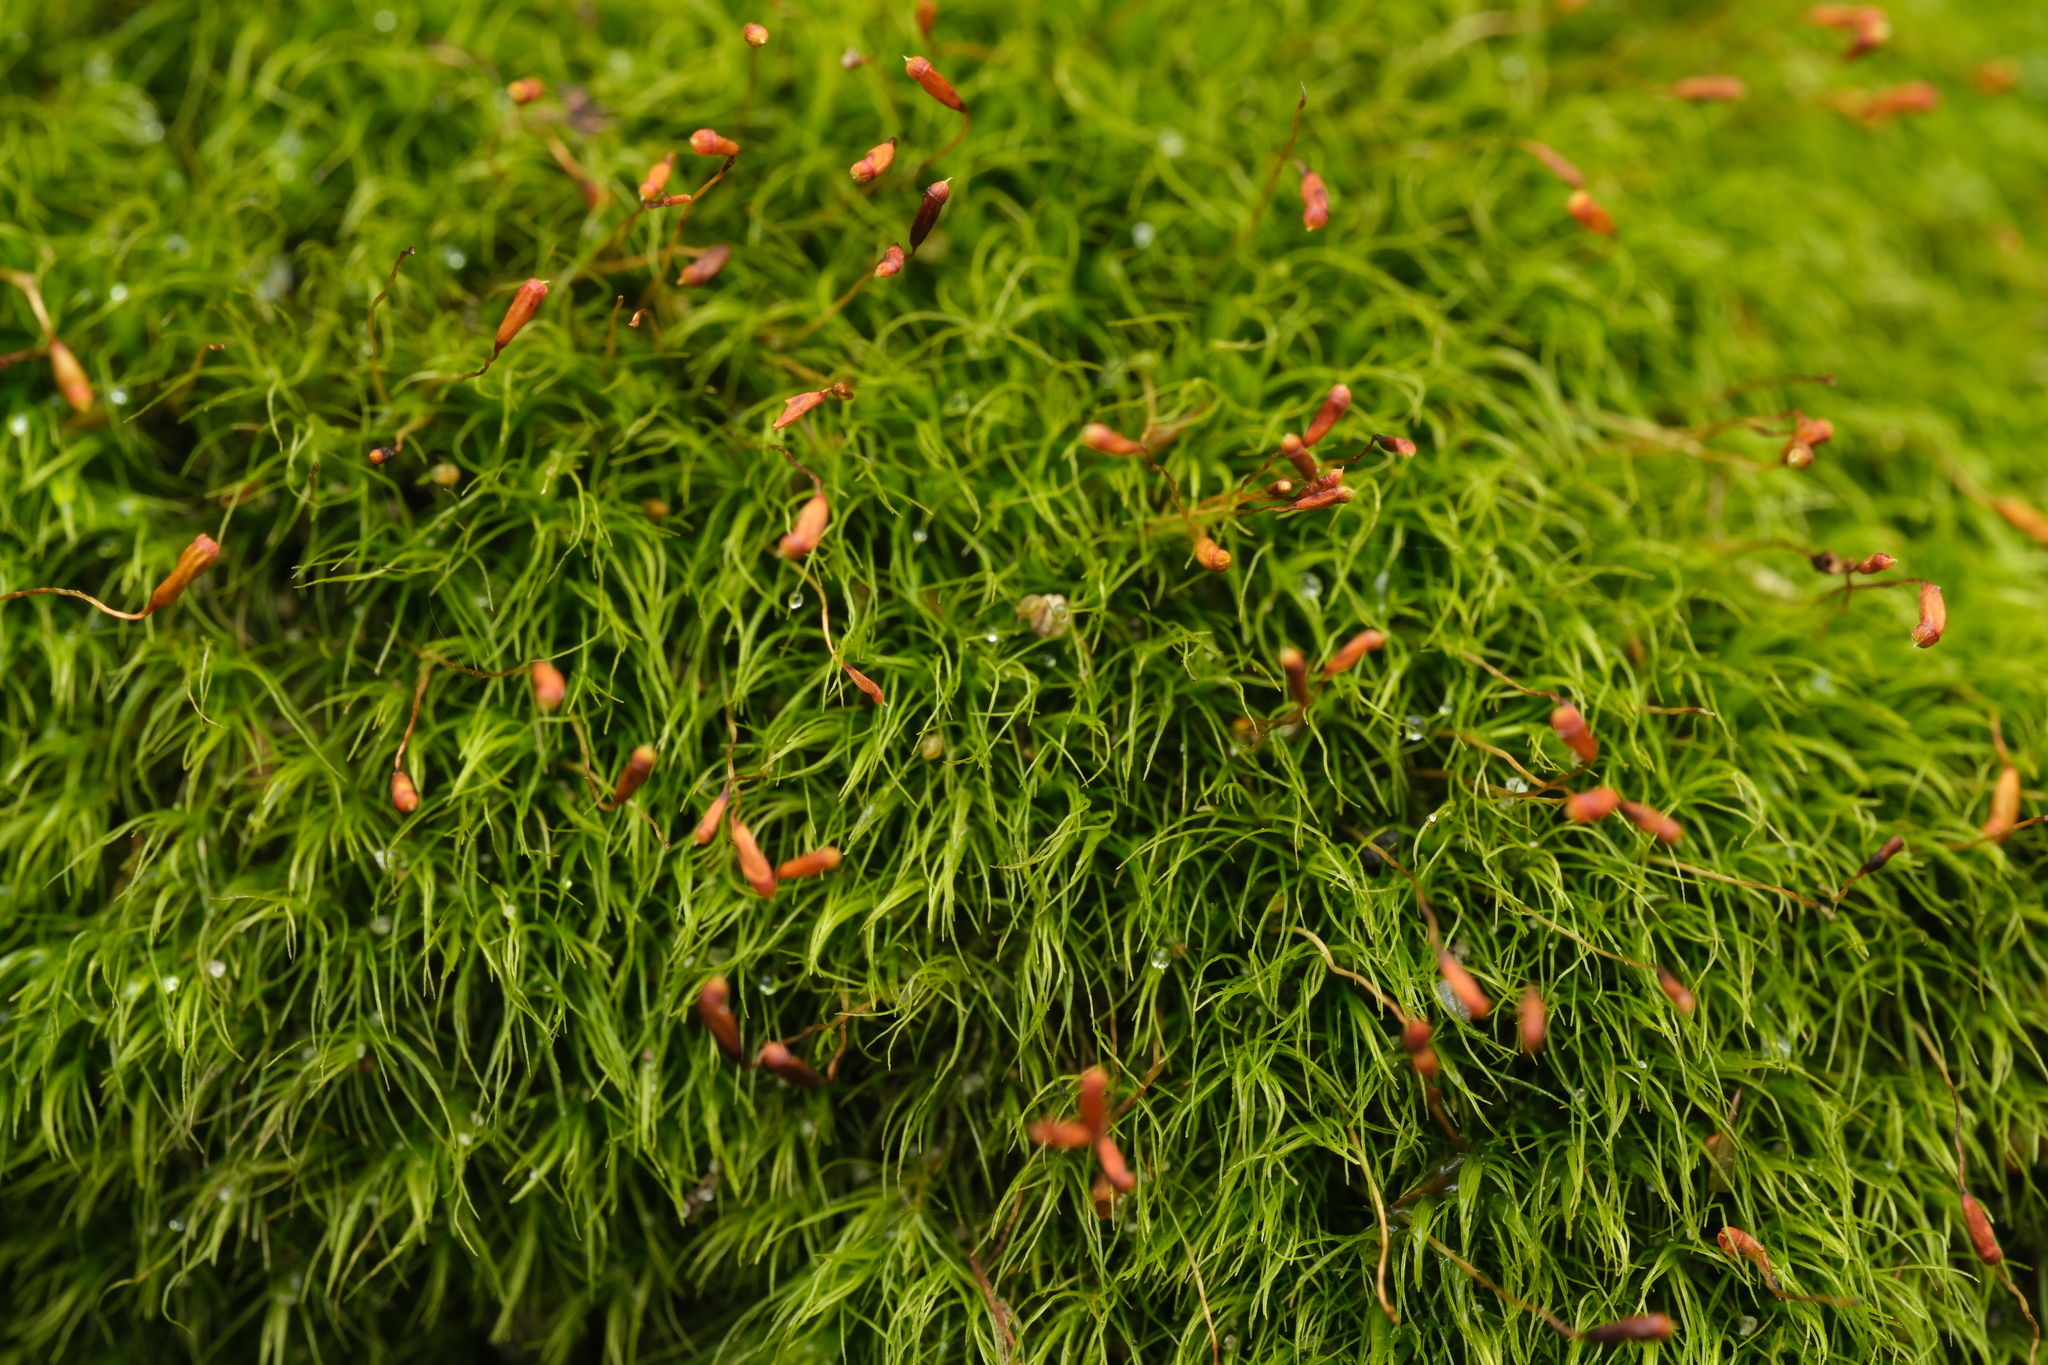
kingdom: Plantae
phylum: Bryophyta
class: Bryopsida
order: Dicranales
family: Dicranellaceae
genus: Dicranella
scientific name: Dicranella heteromalla
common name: Silky forklet moss
